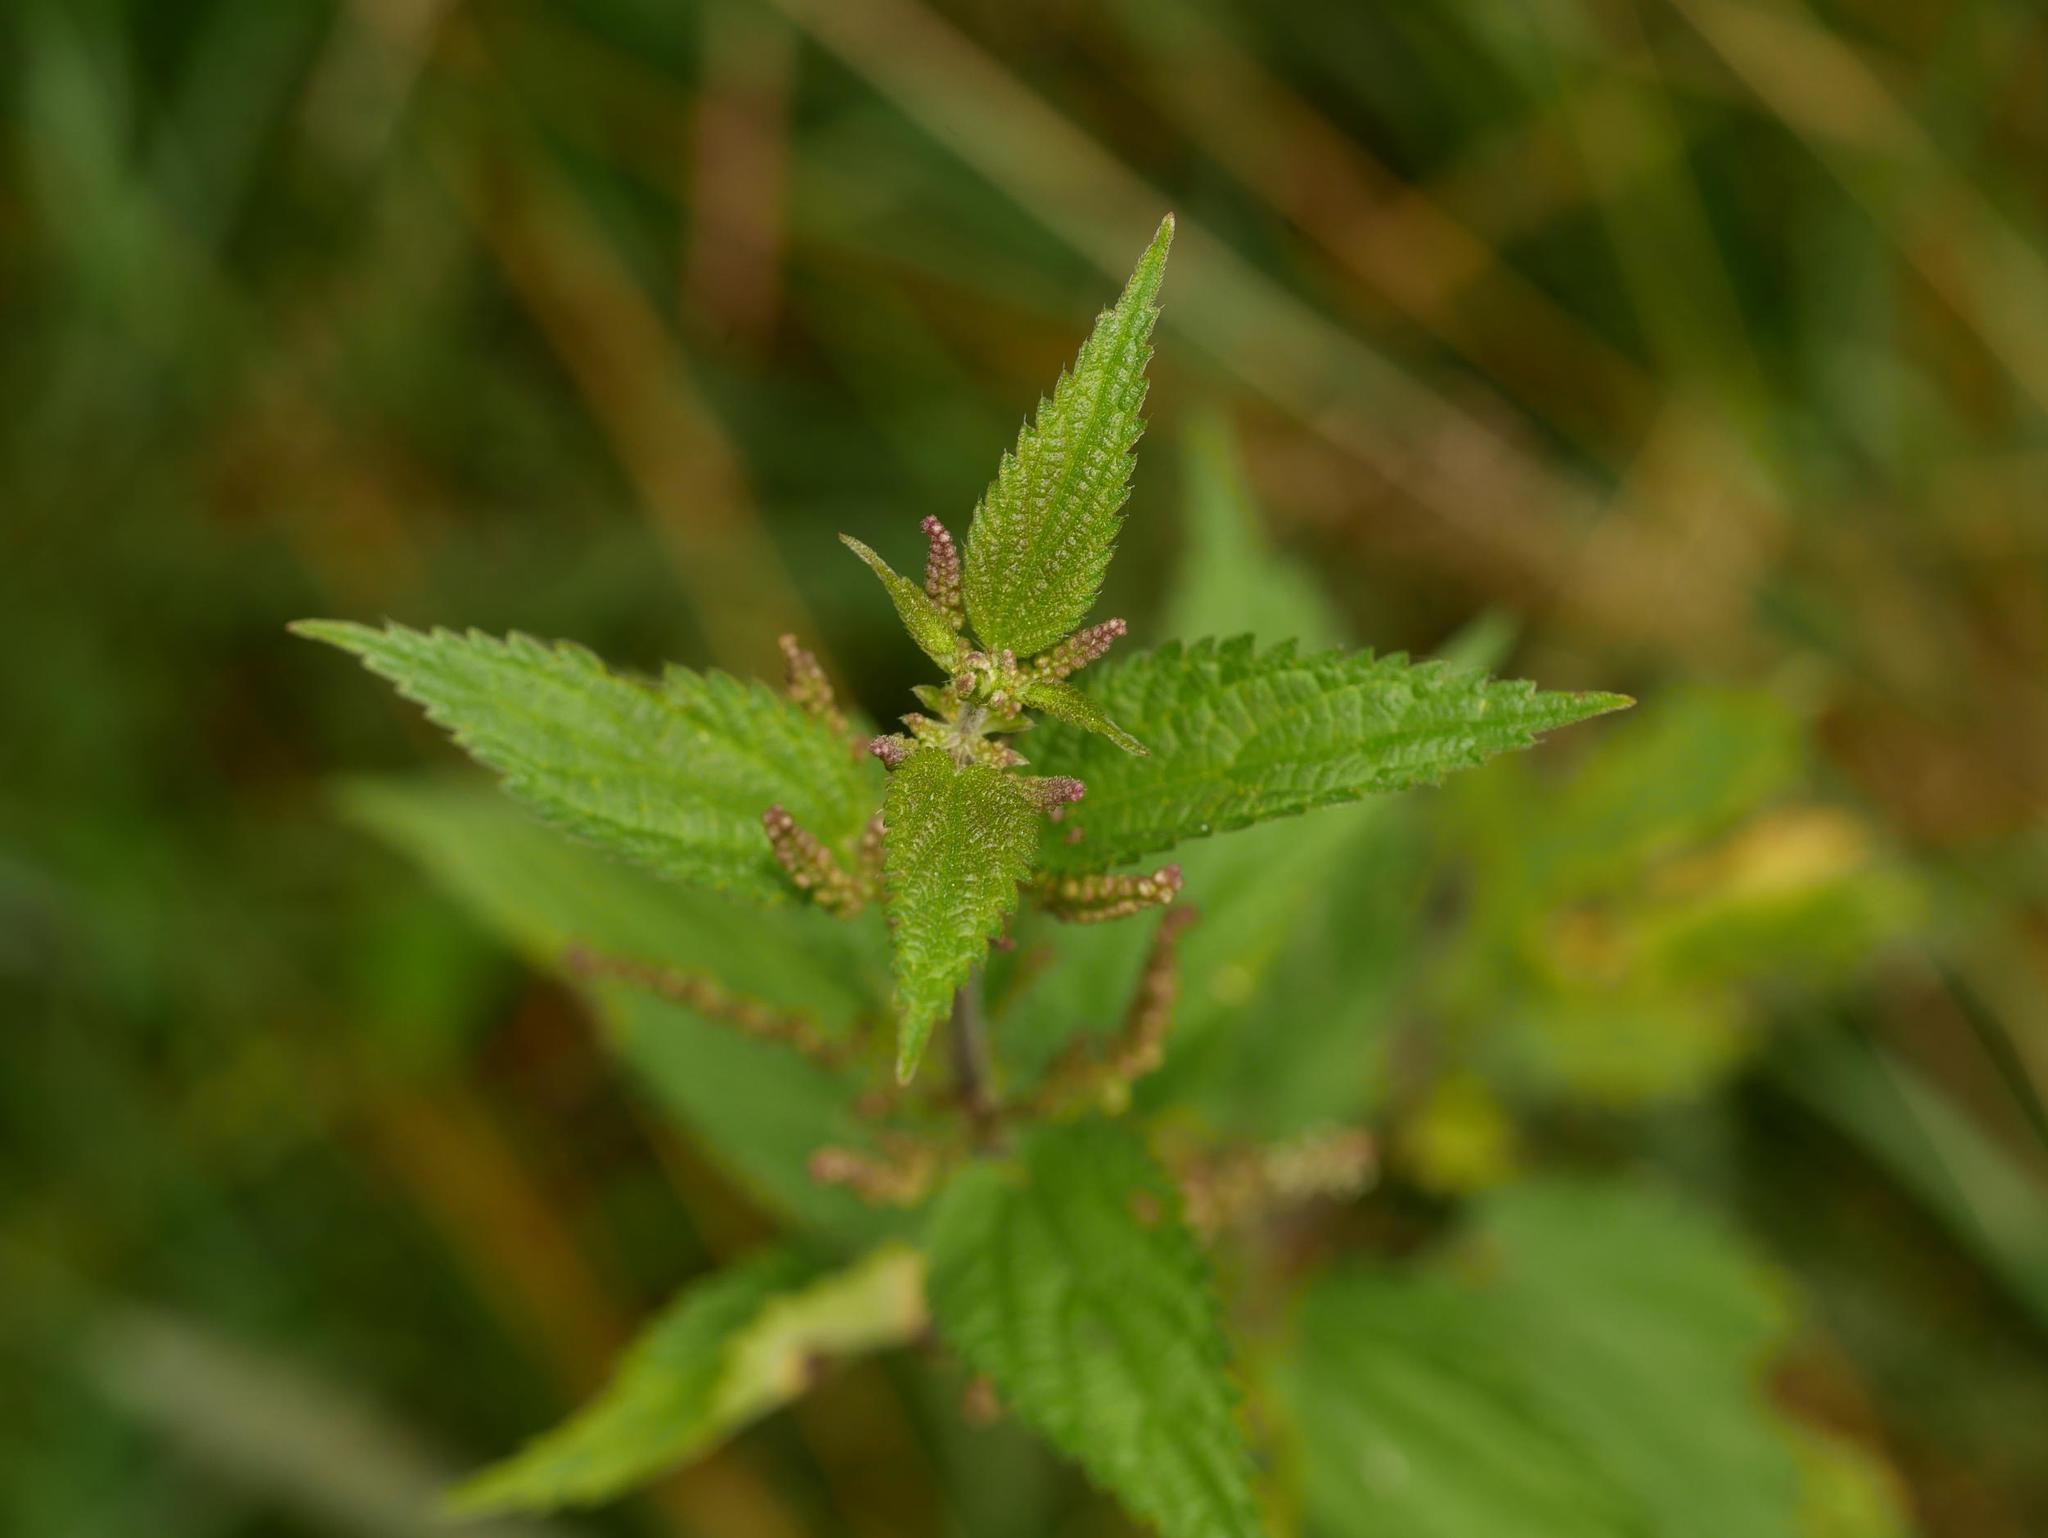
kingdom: Plantae
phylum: Tracheophyta
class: Magnoliopsida
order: Rosales
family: Urticaceae
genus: Urtica
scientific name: Urtica dioica
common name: Common nettle
